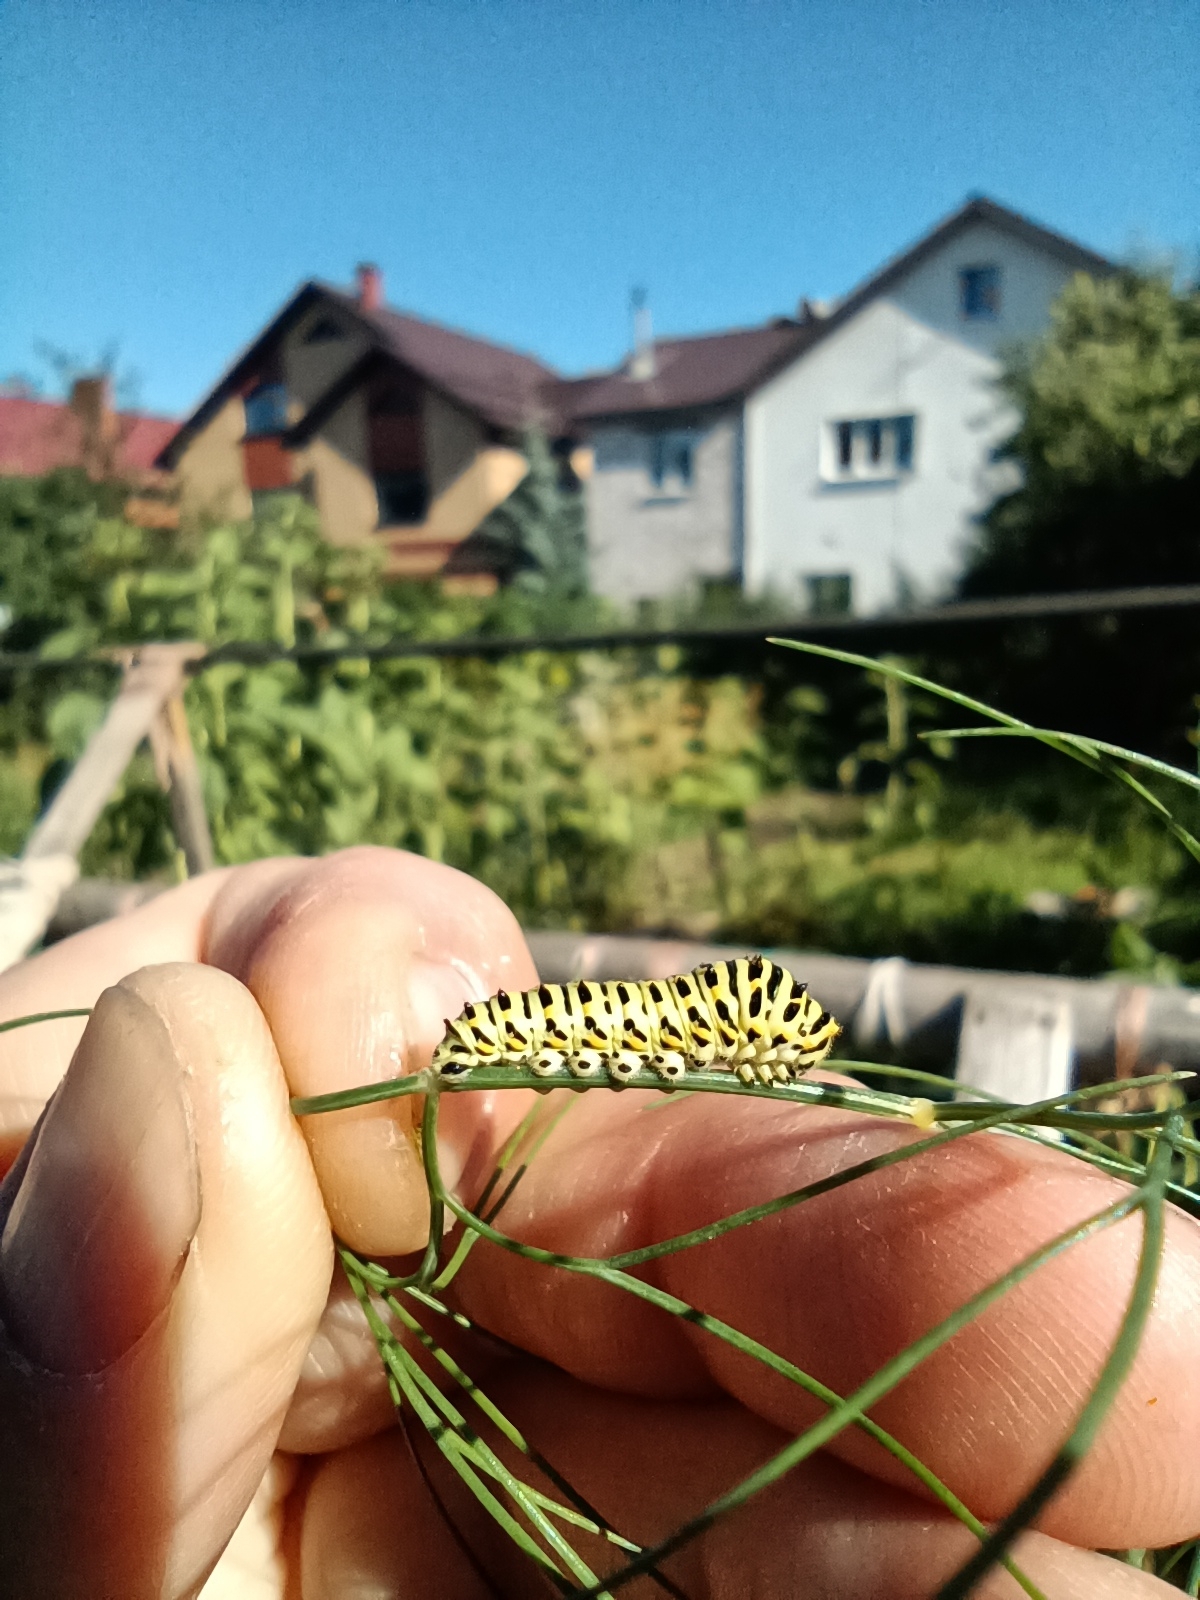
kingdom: Animalia
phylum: Arthropoda
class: Insecta
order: Lepidoptera
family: Papilionidae
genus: Papilio
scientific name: Papilio machaon
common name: Swallowtail
